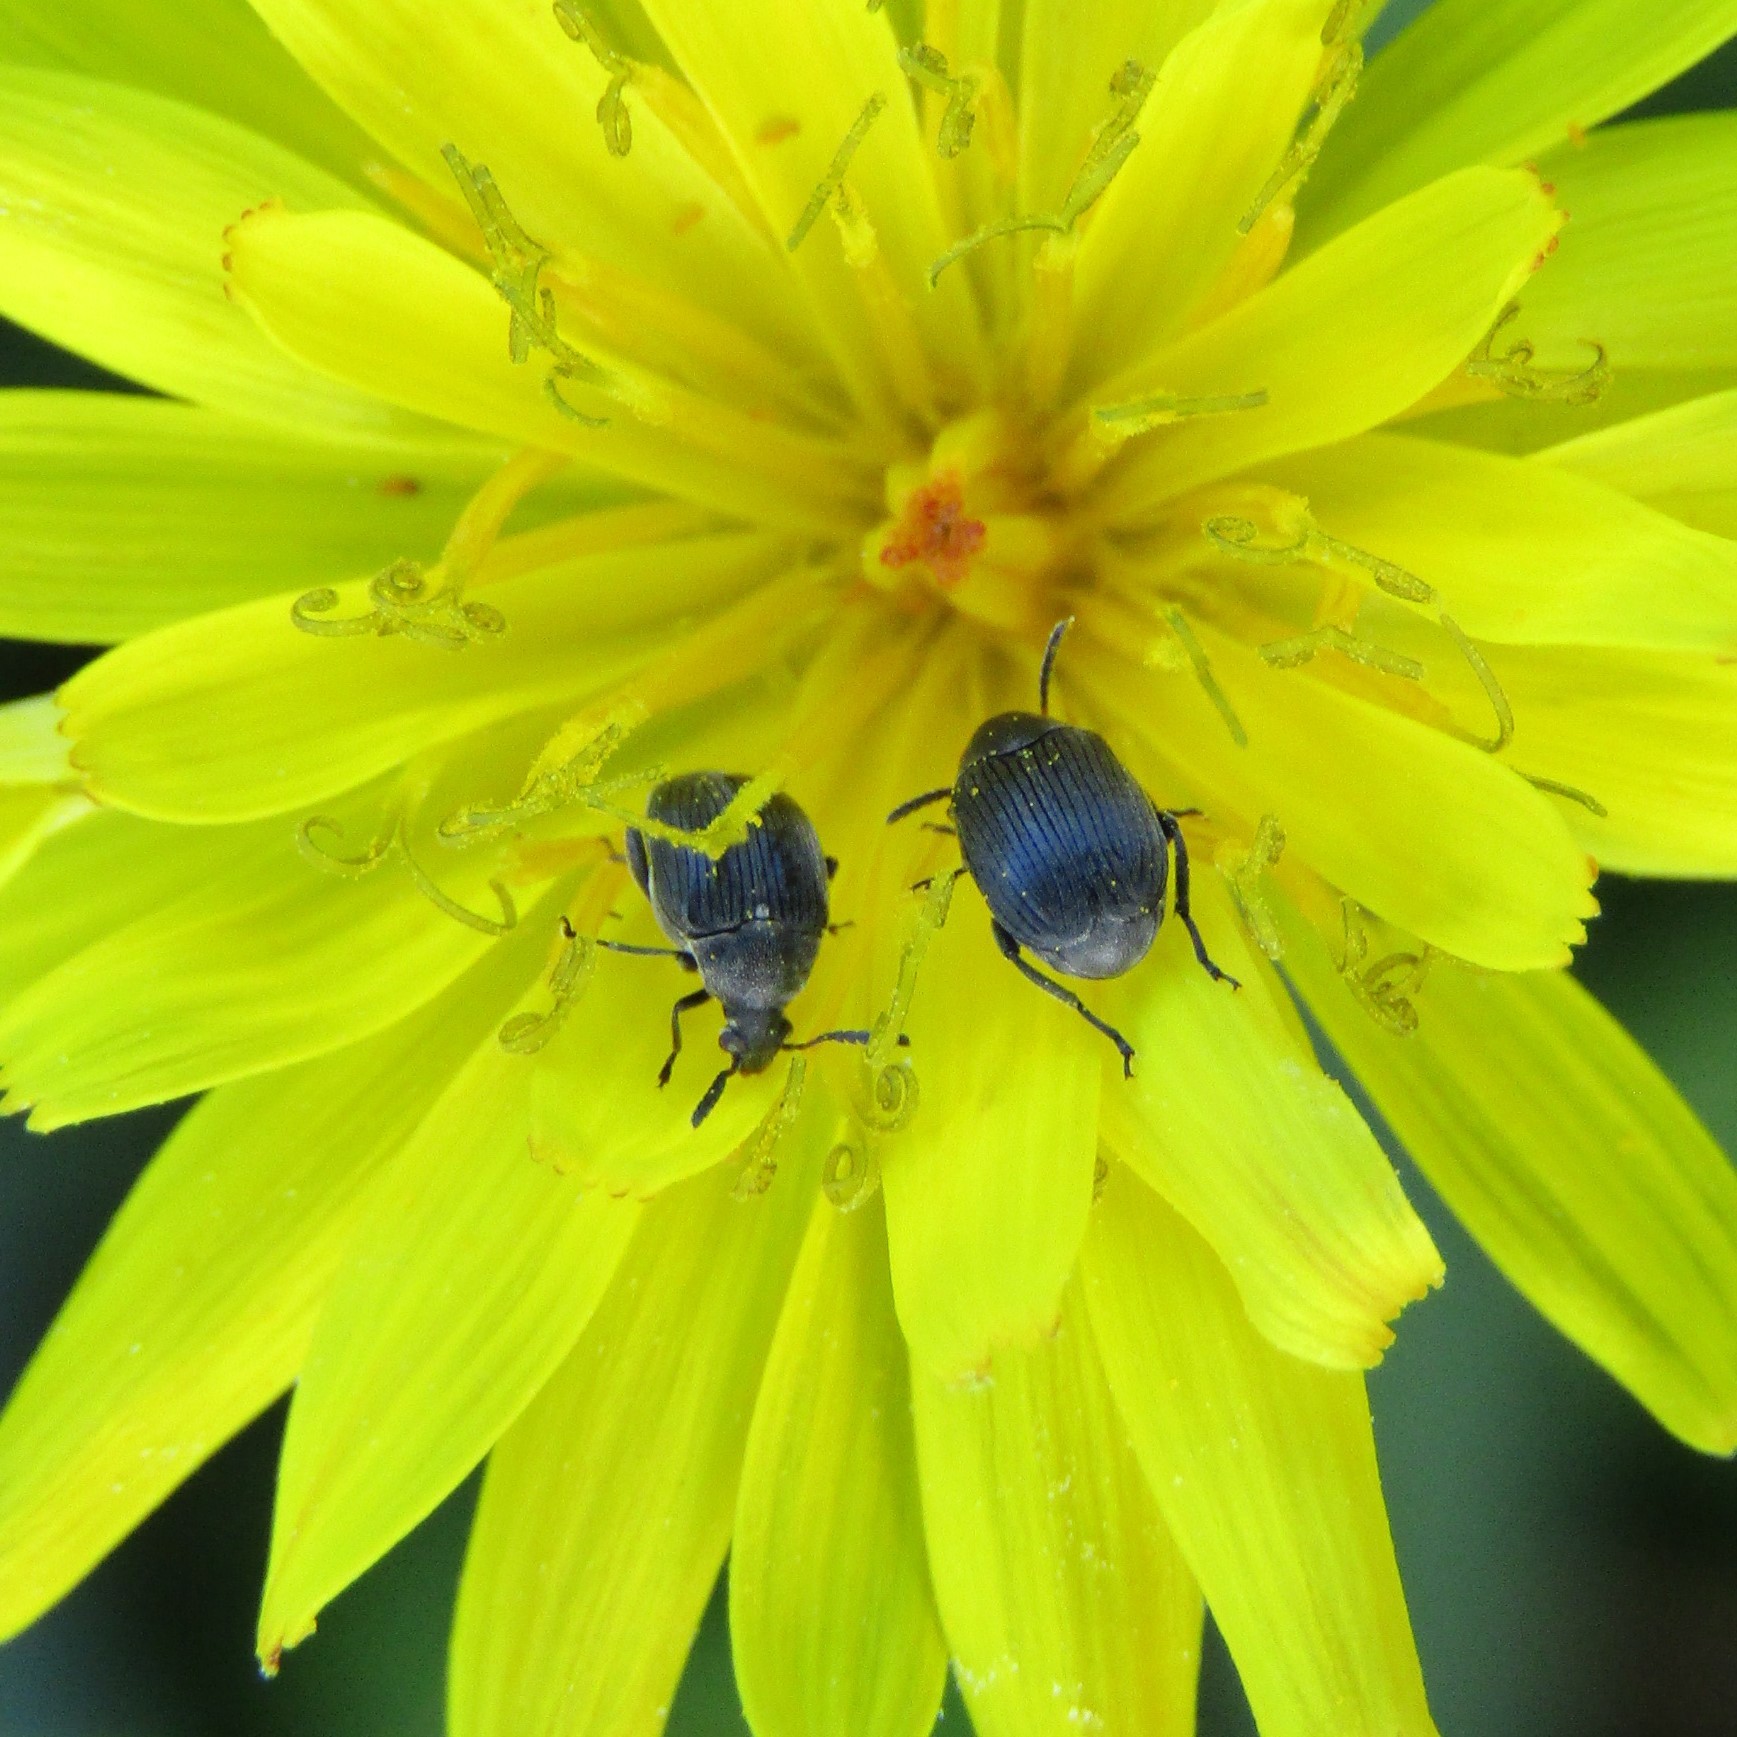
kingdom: Animalia
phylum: Arthropoda
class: Insecta
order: Coleoptera
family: Chrysomelidae
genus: Bruchidius
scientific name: Bruchidius villosus
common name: Scotch broom bruchid
